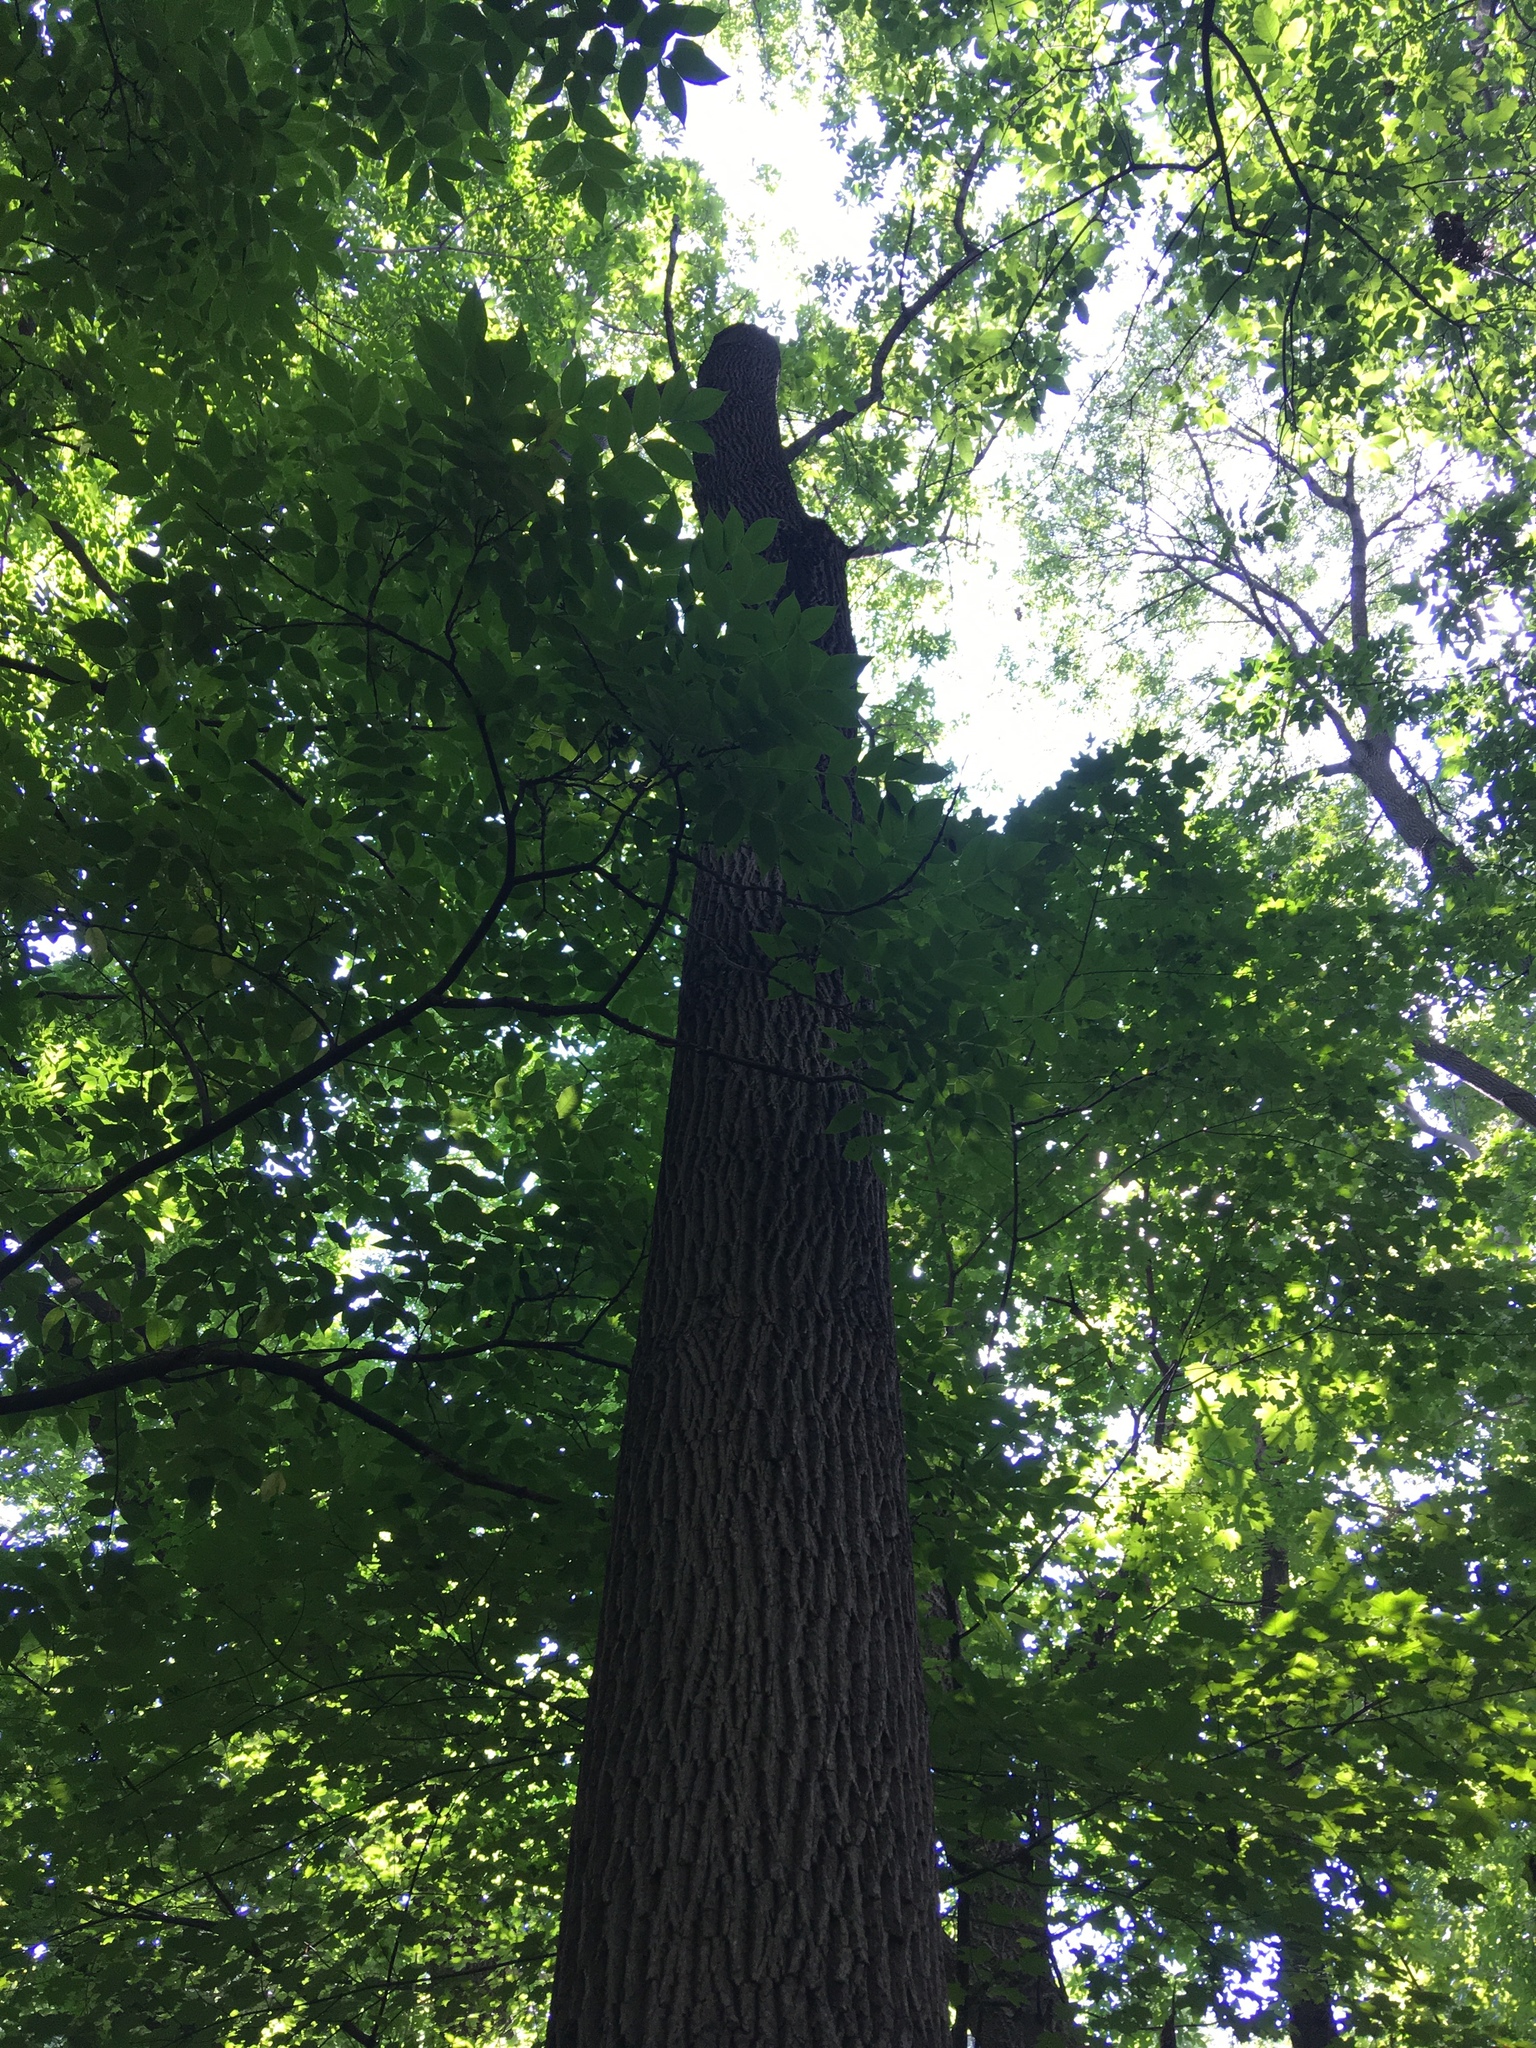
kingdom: Plantae
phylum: Tracheophyta
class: Magnoliopsida
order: Lamiales
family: Oleaceae
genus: Fraxinus
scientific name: Fraxinus pennsylvanica
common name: Green ash
